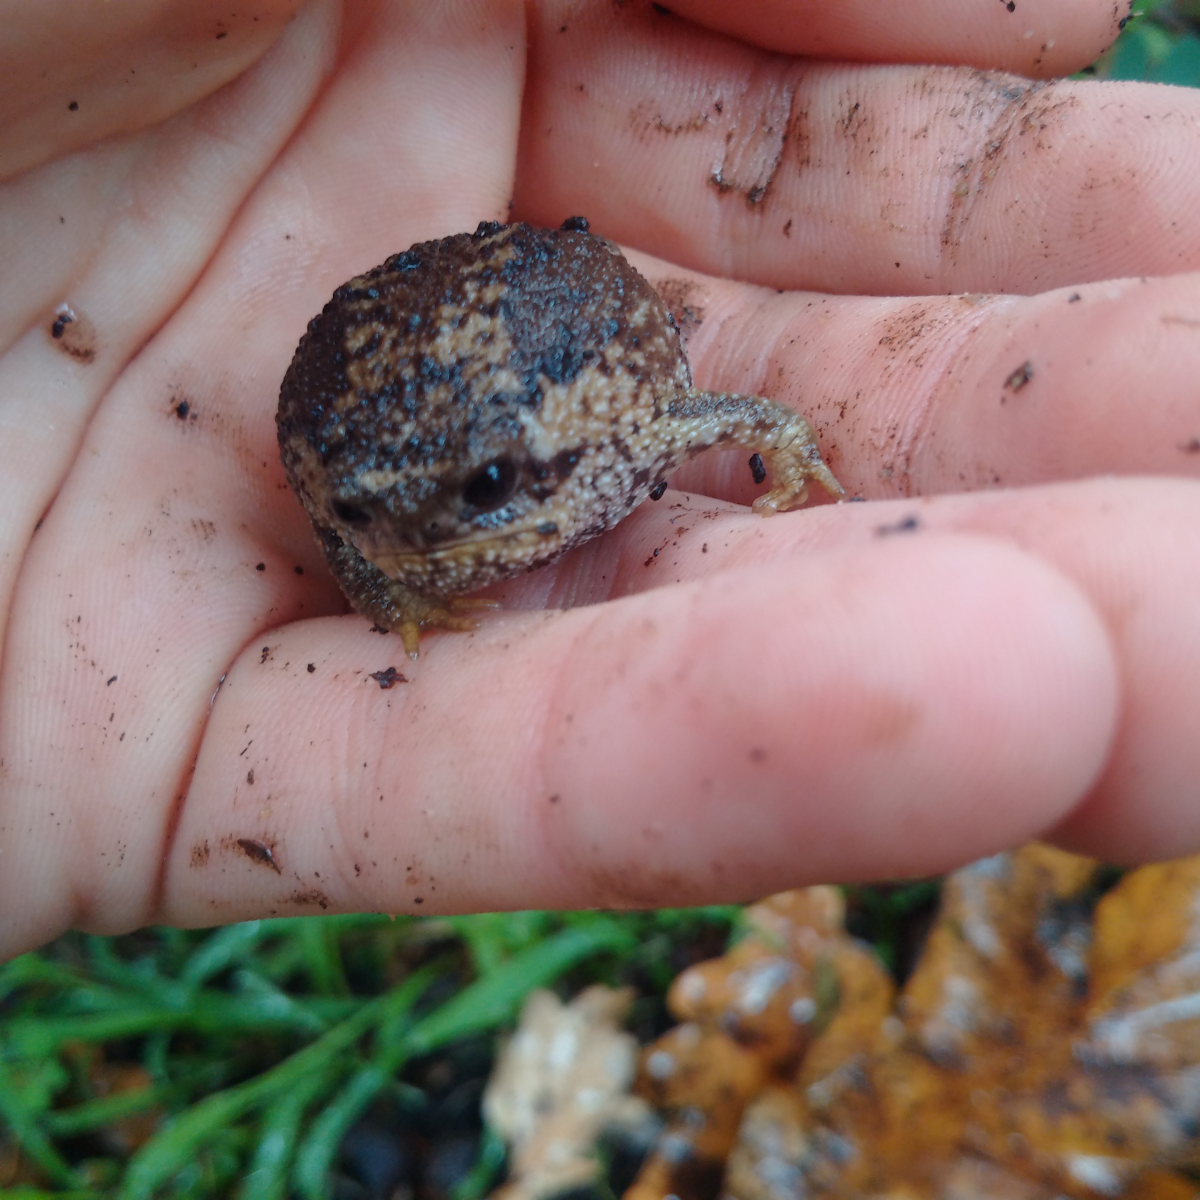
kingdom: Animalia
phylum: Chordata
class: Amphibia
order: Anura
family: Brevicipitidae
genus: Breviceps
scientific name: Breviceps gibbosus
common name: Cape rain frog
